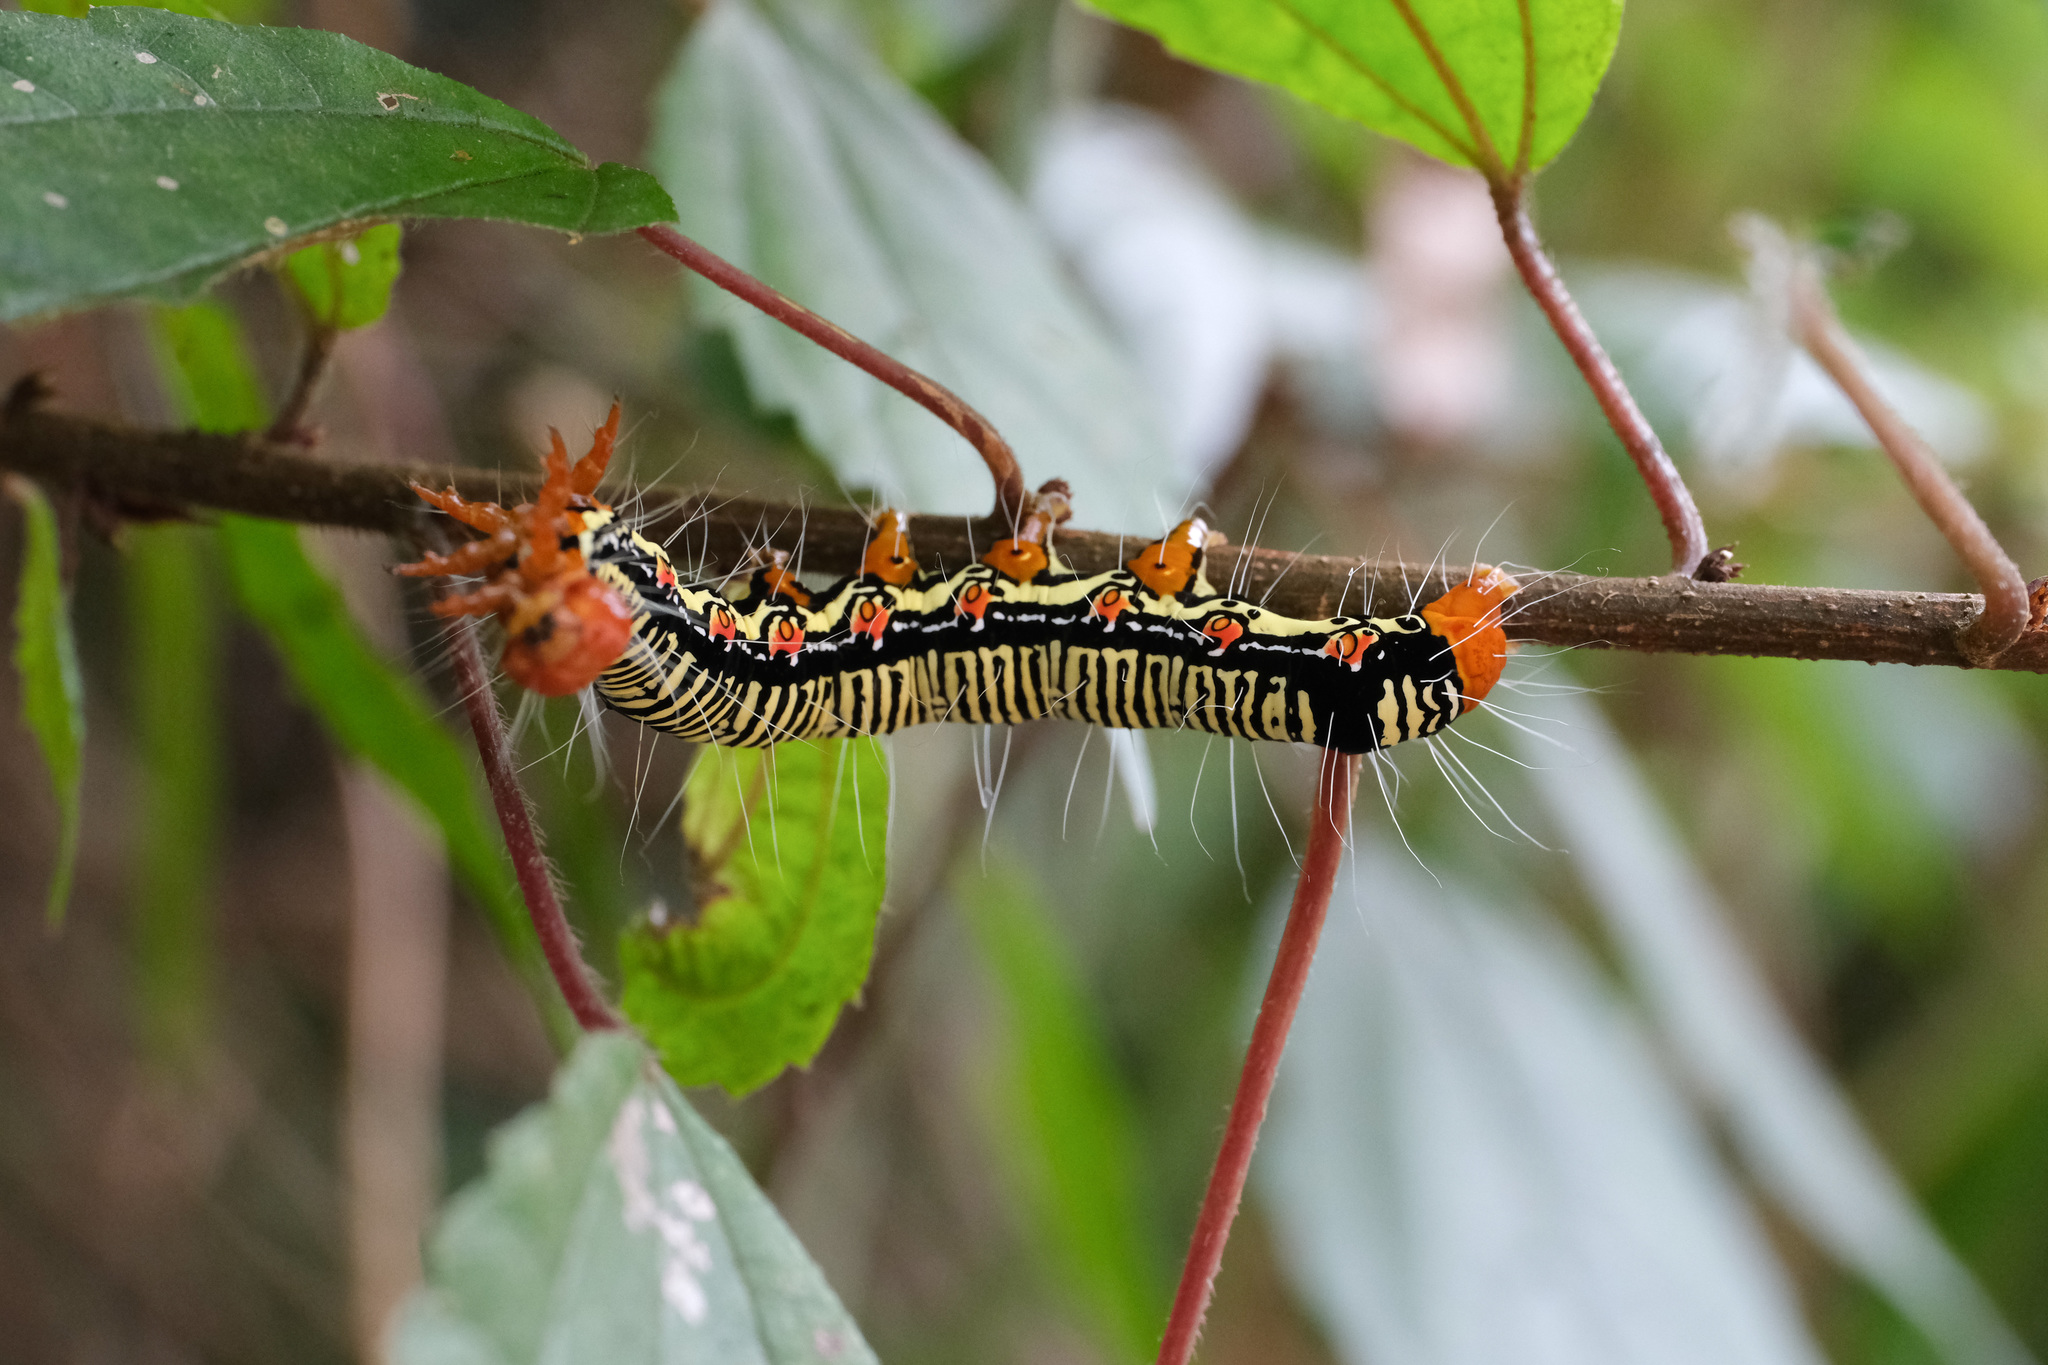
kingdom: Animalia
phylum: Arthropoda
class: Insecta
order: Lepidoptera
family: Erebidae
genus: Arcte
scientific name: Arcte coerula
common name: Ramie moth
